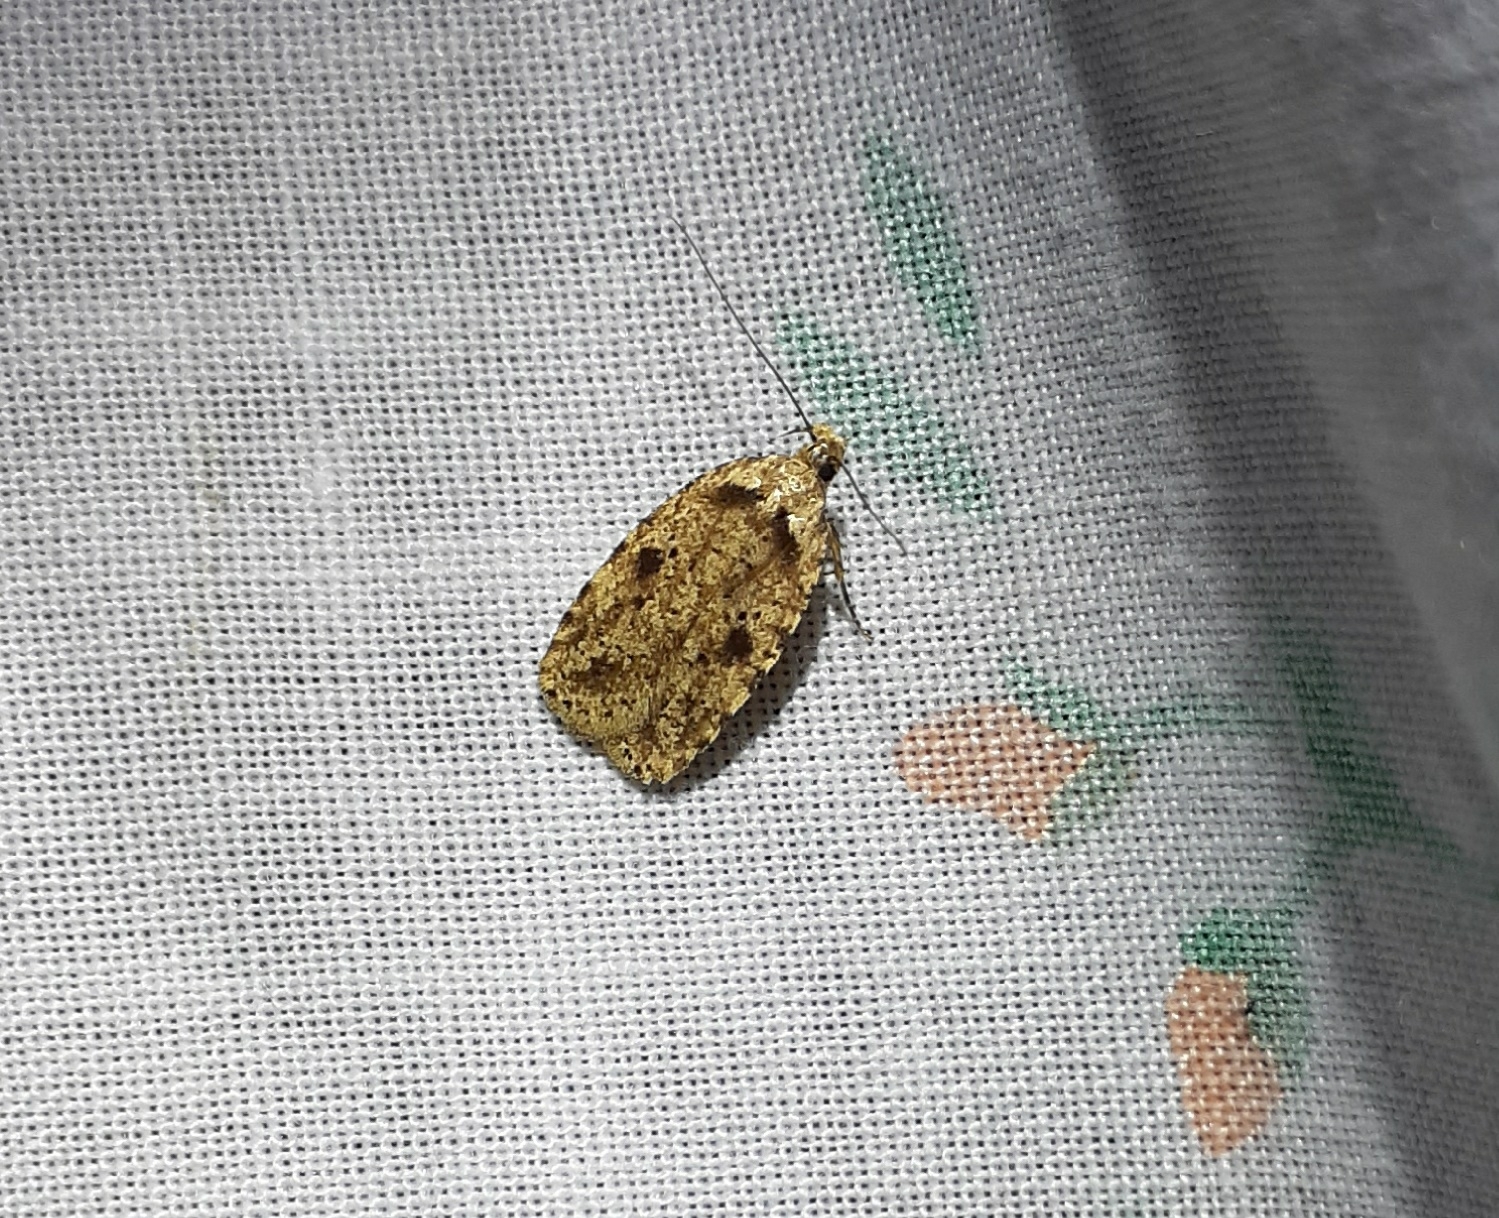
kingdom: Animalia
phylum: Arthropoda
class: Insecta
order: Lepidoptera
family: Depressariidae
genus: Agonopterix
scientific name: Agonopterix canadensis
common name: Canadian agonopterix moth
